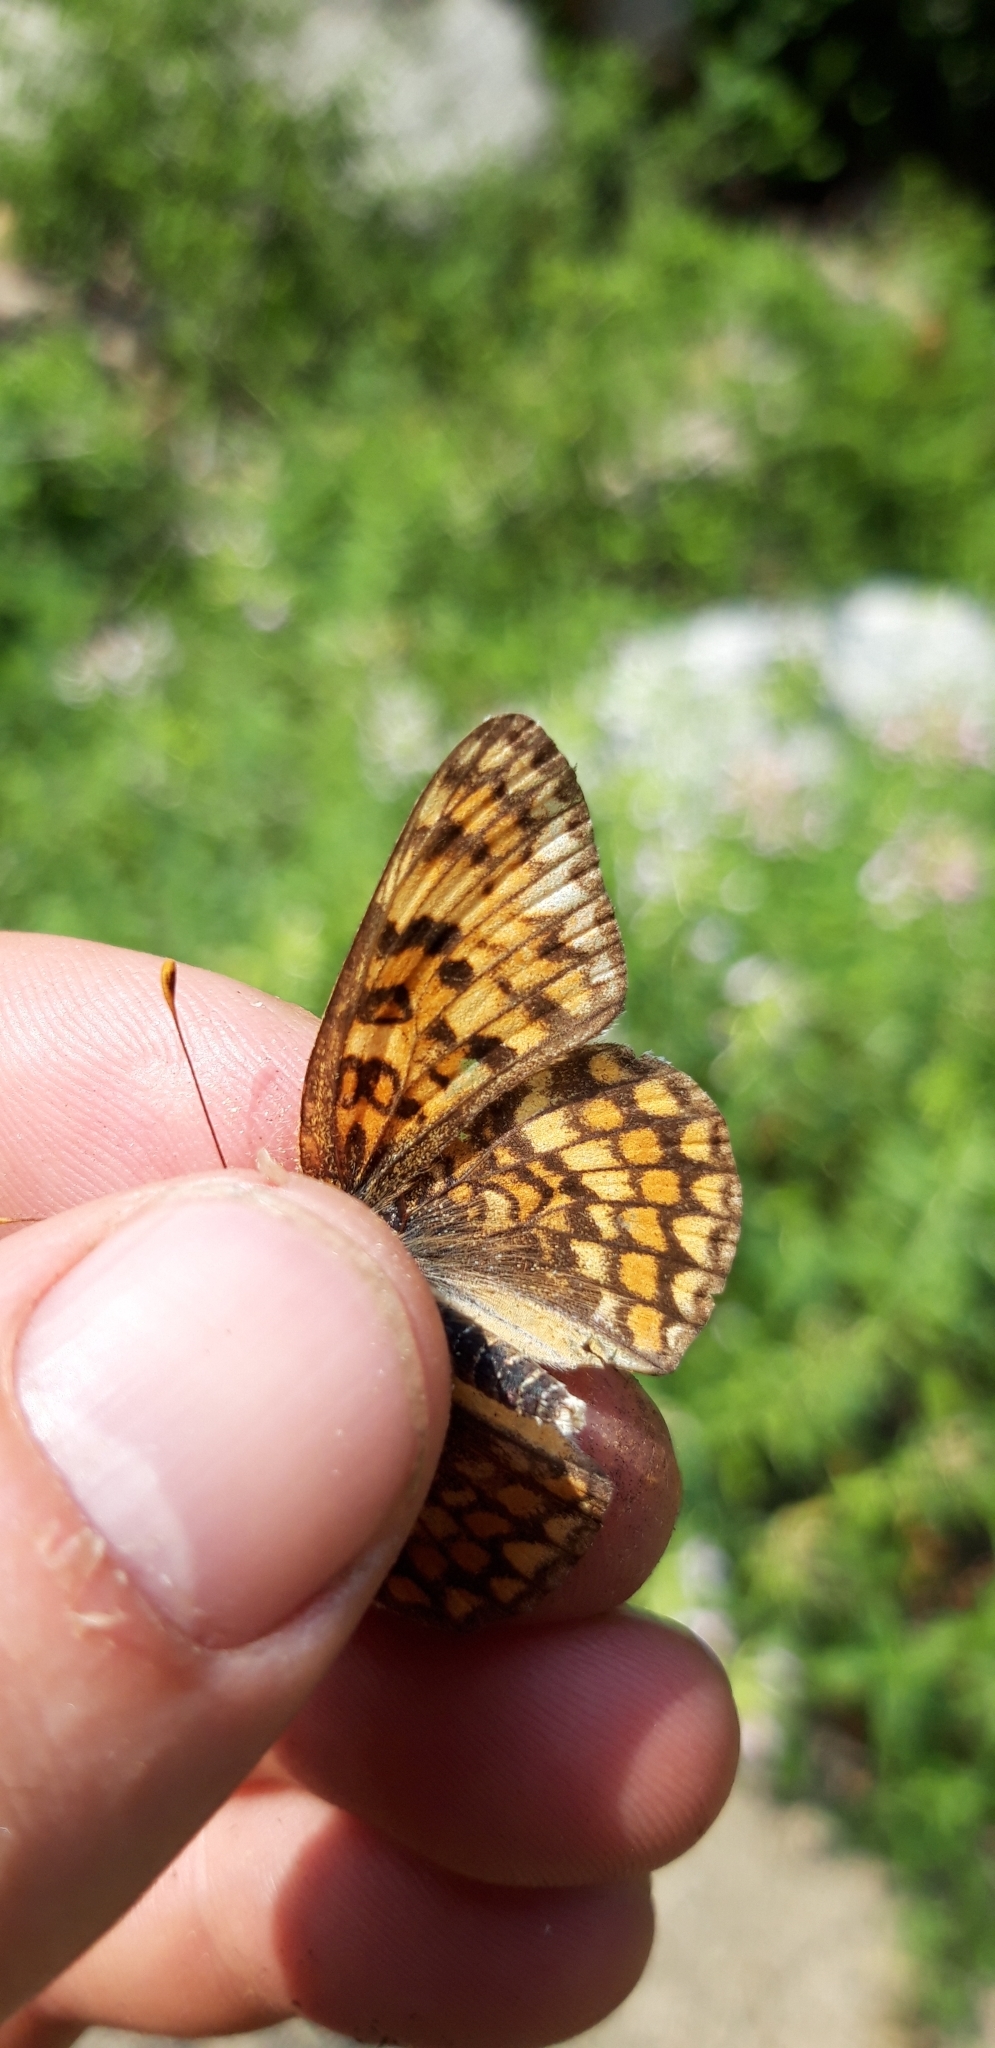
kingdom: Animalia
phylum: Arthropoda
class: Insecta
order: Lepidoptera
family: Nymphalidae
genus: Melitaea
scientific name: Melitaea phoebe
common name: Knapweed fritillary
